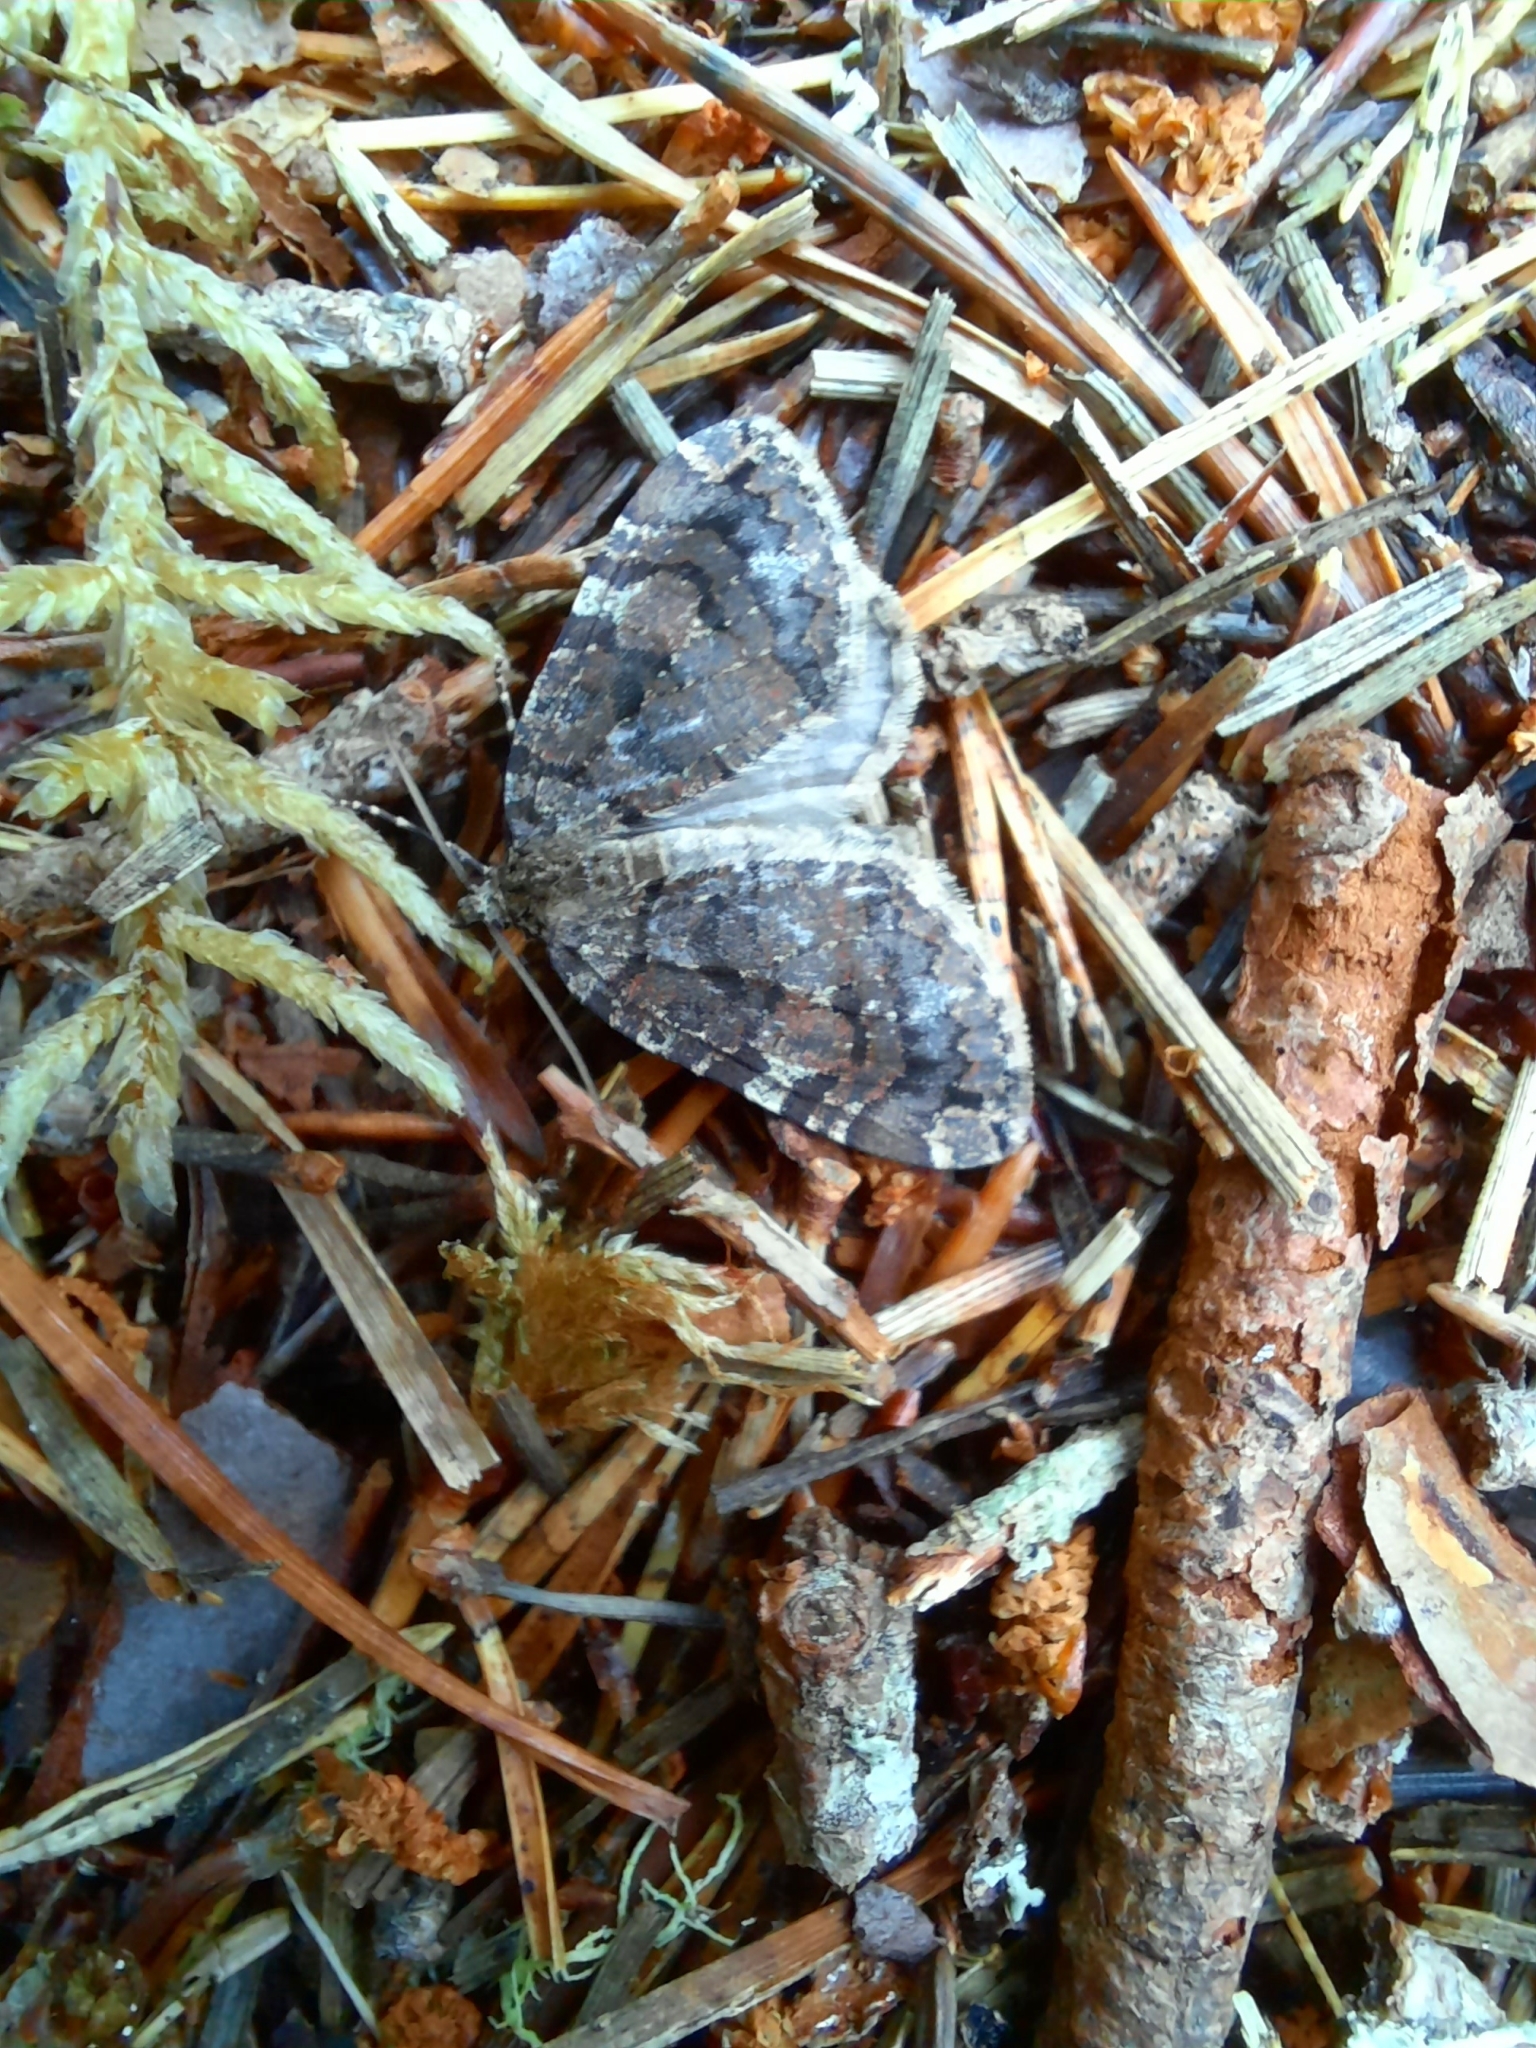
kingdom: Animalia
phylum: Arthropoda
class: Insecta
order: Lepidoptera
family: Geometridae
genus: Hydriomena
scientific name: Hydriomena furcata
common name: July highflyer
